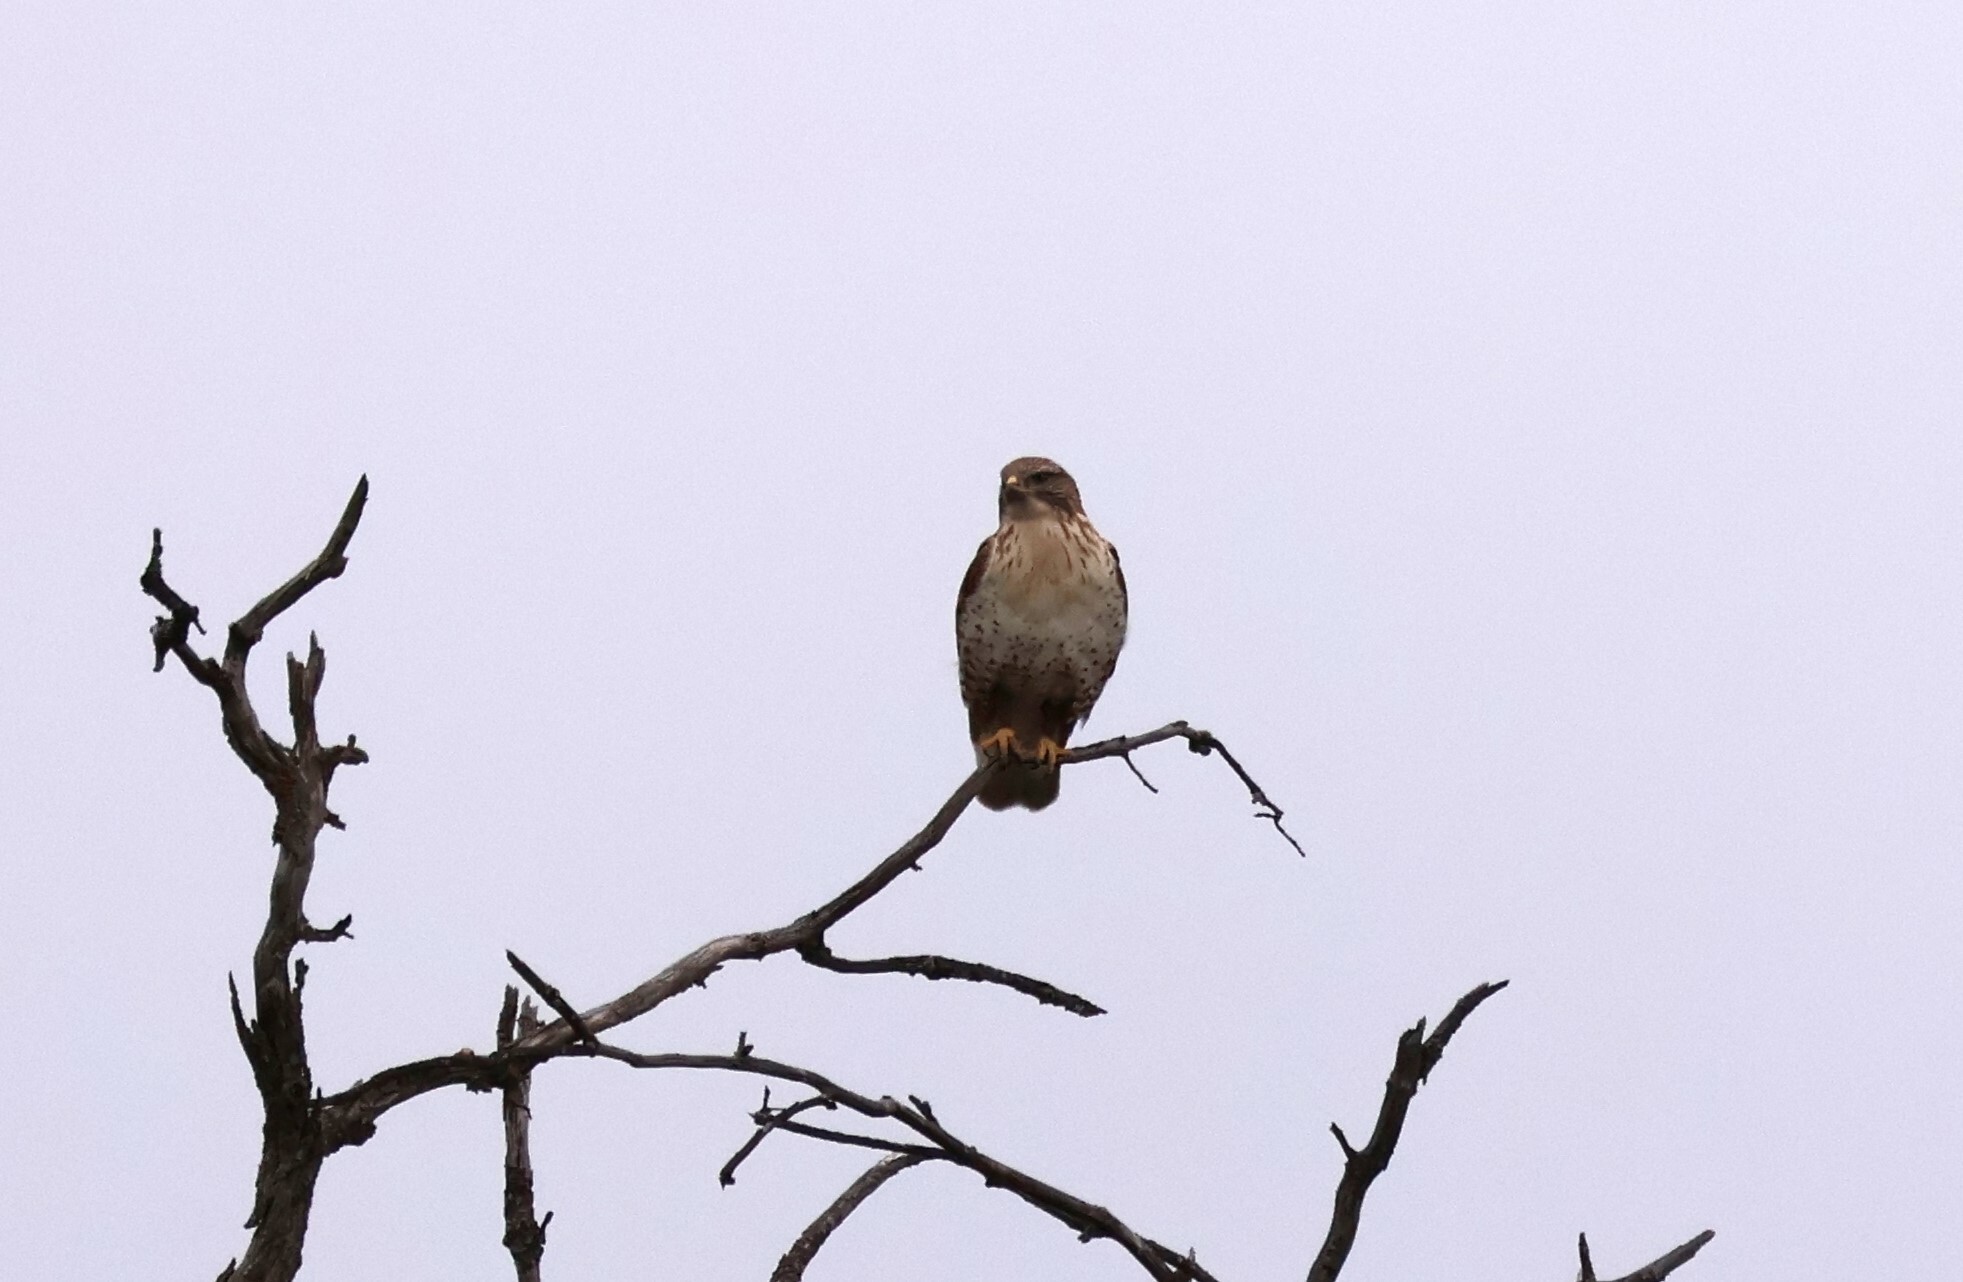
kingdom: Animalia
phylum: Chordata
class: Aves
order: Accipitriformes
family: Accipitridae
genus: Buteo
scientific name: Buteo jamaicensis
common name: Red-tailed hawk
